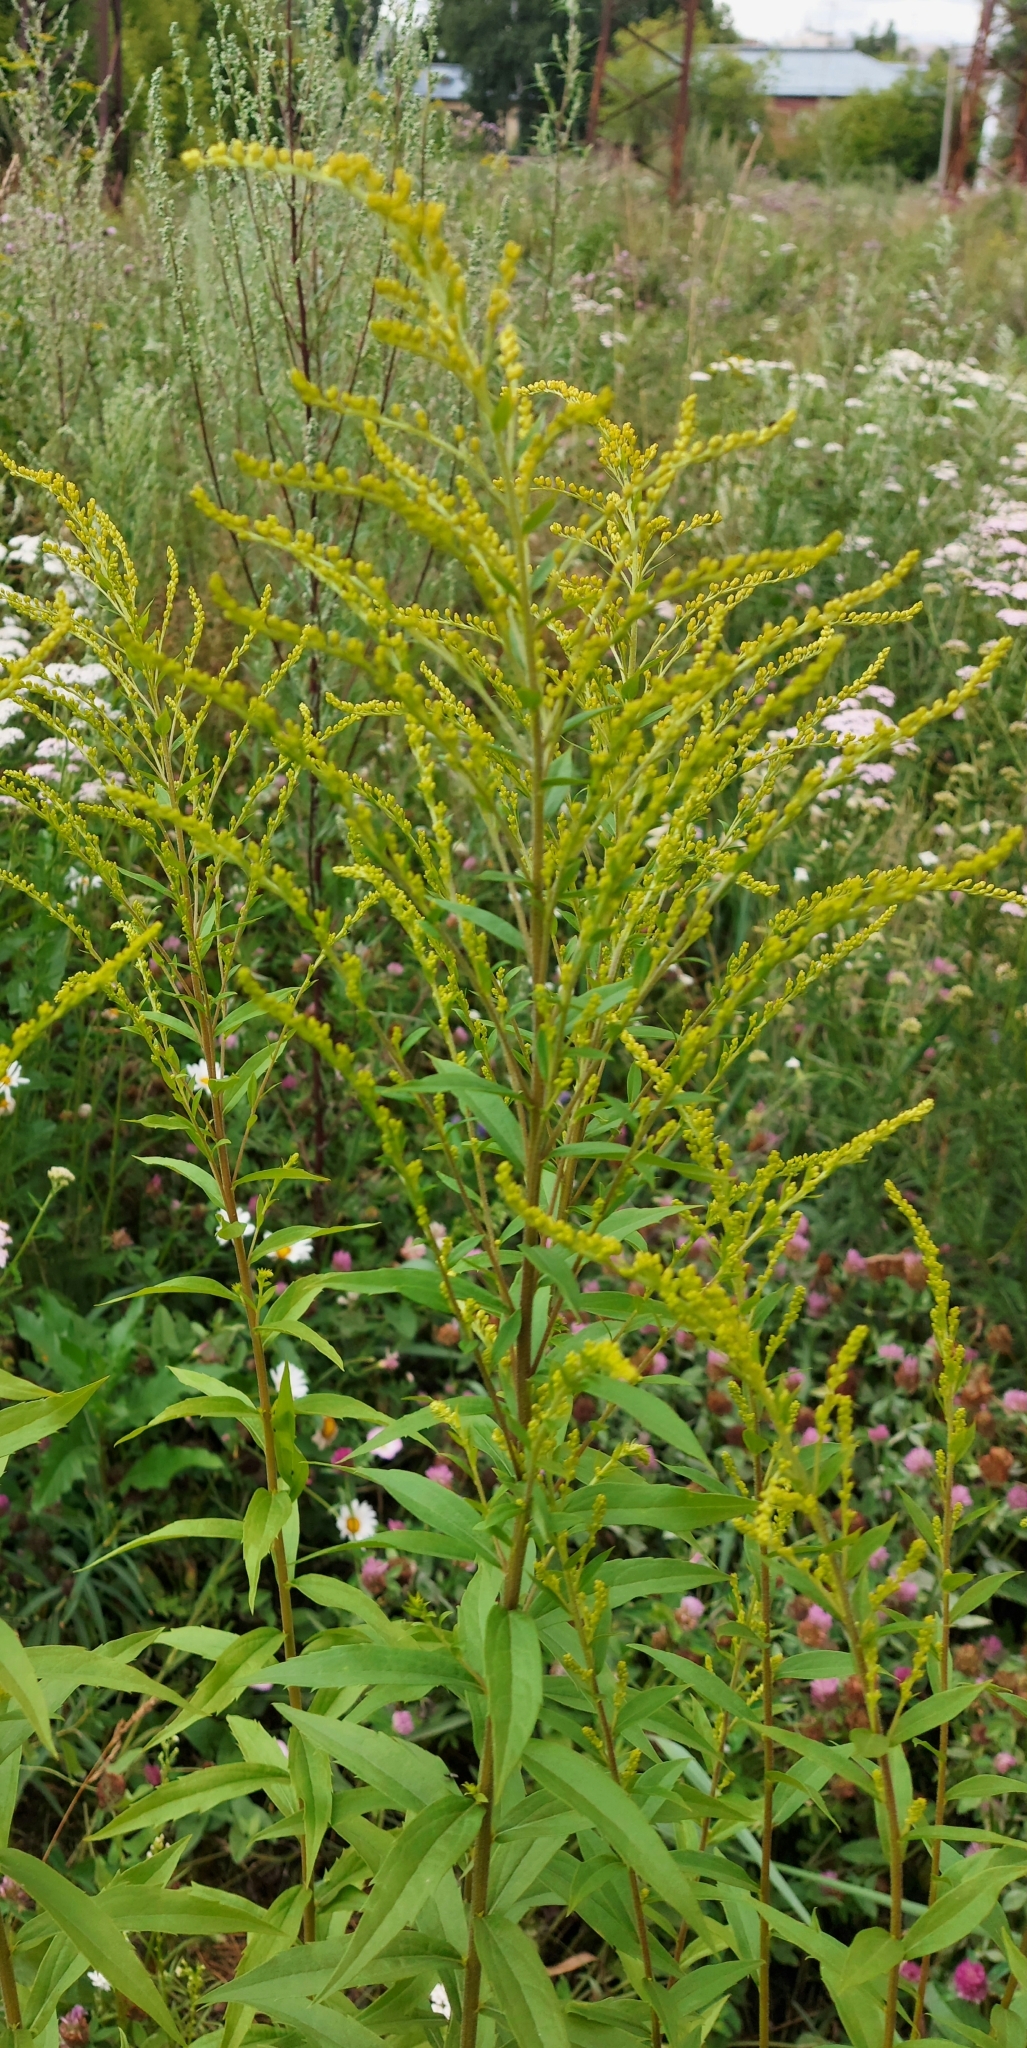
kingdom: Plantae
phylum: Tracheophyta
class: Magnoliopsida
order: Asterales
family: Asteraceae
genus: Solidago
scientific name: Solidago canadensis
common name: Canada goldenrod
